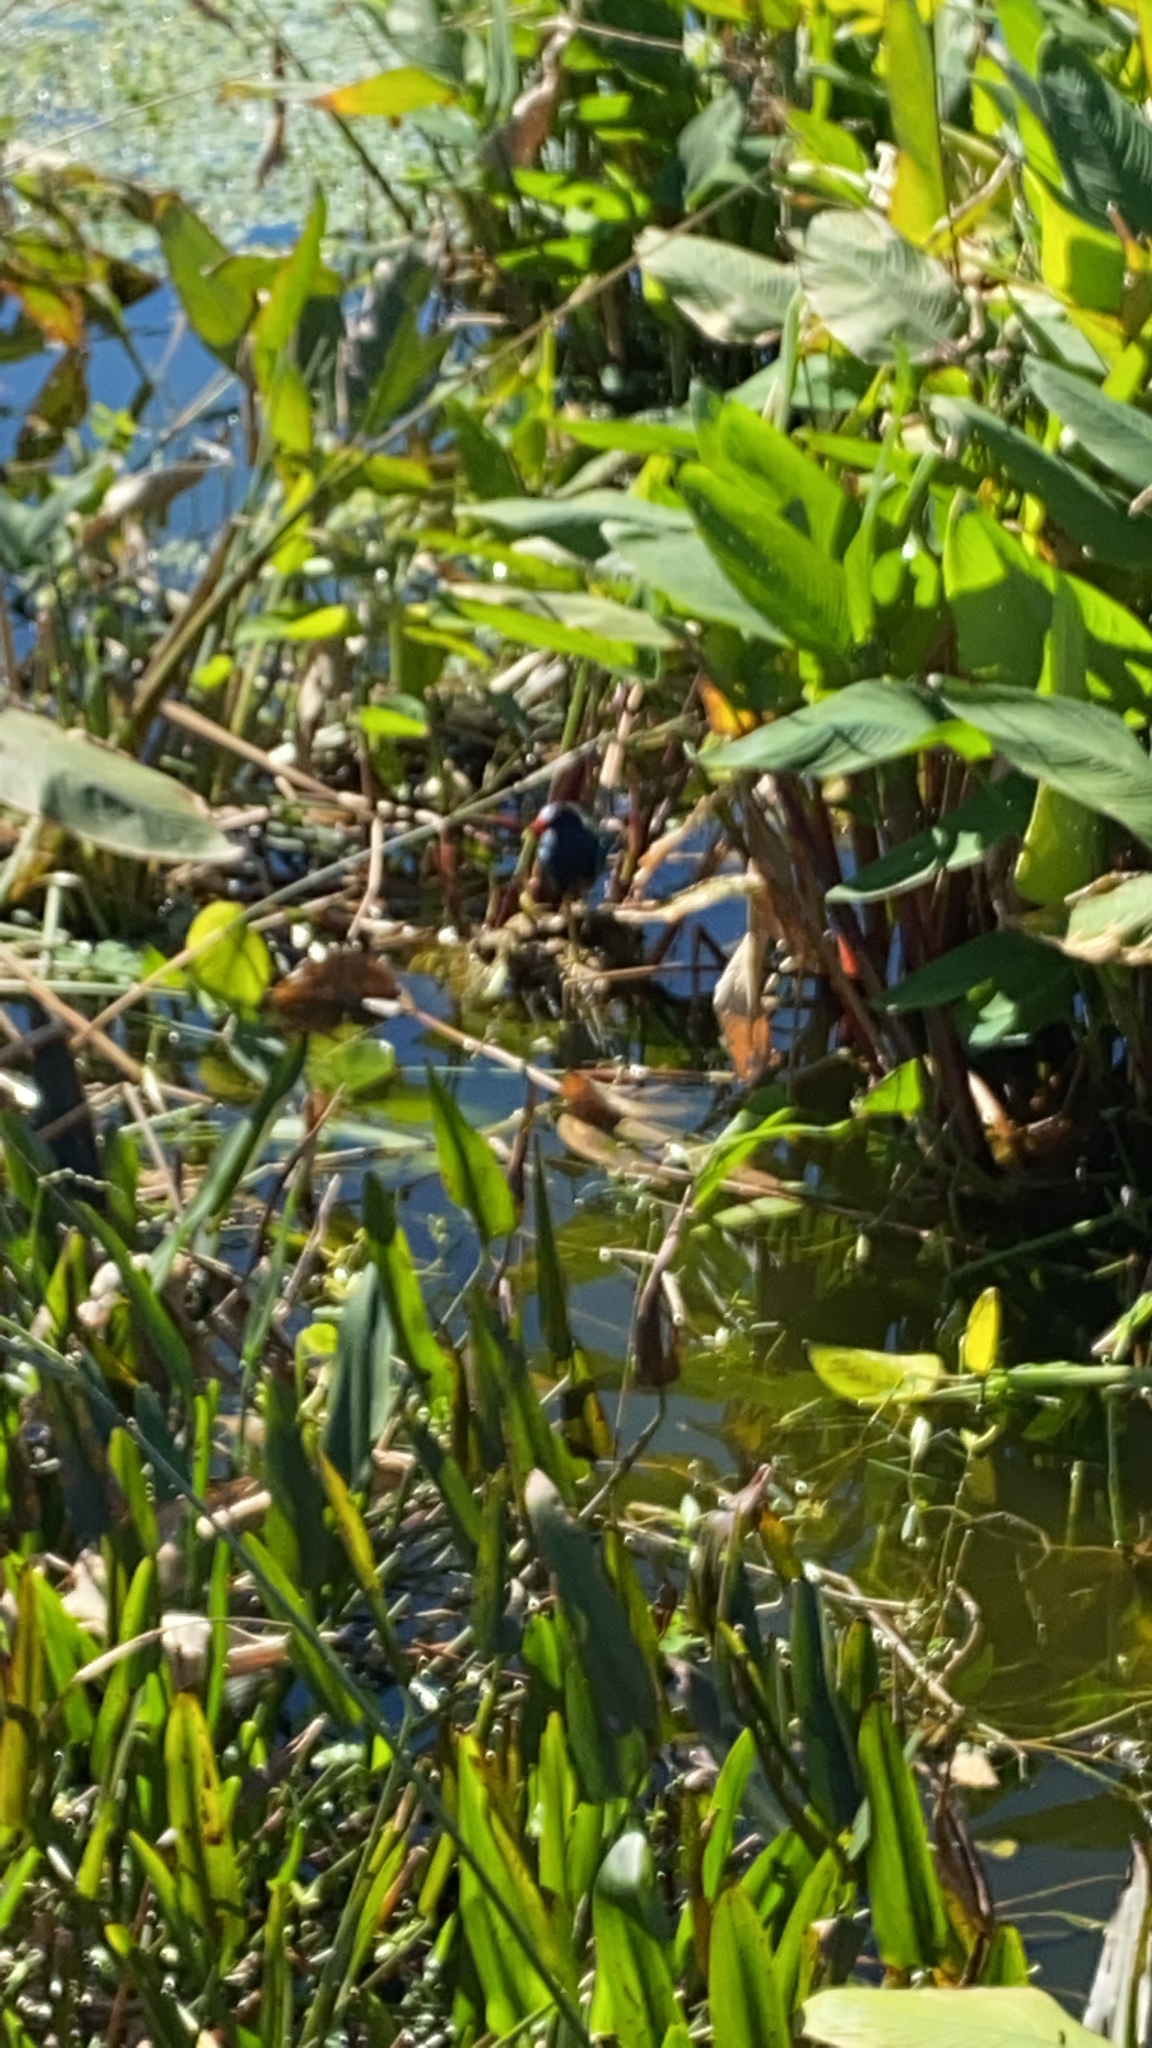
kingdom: Animalia
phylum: Chordata
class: Aves
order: Gruiformes
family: Rallidae
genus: Porphyrio
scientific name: Porphyrio martinica
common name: Purple gallinule
